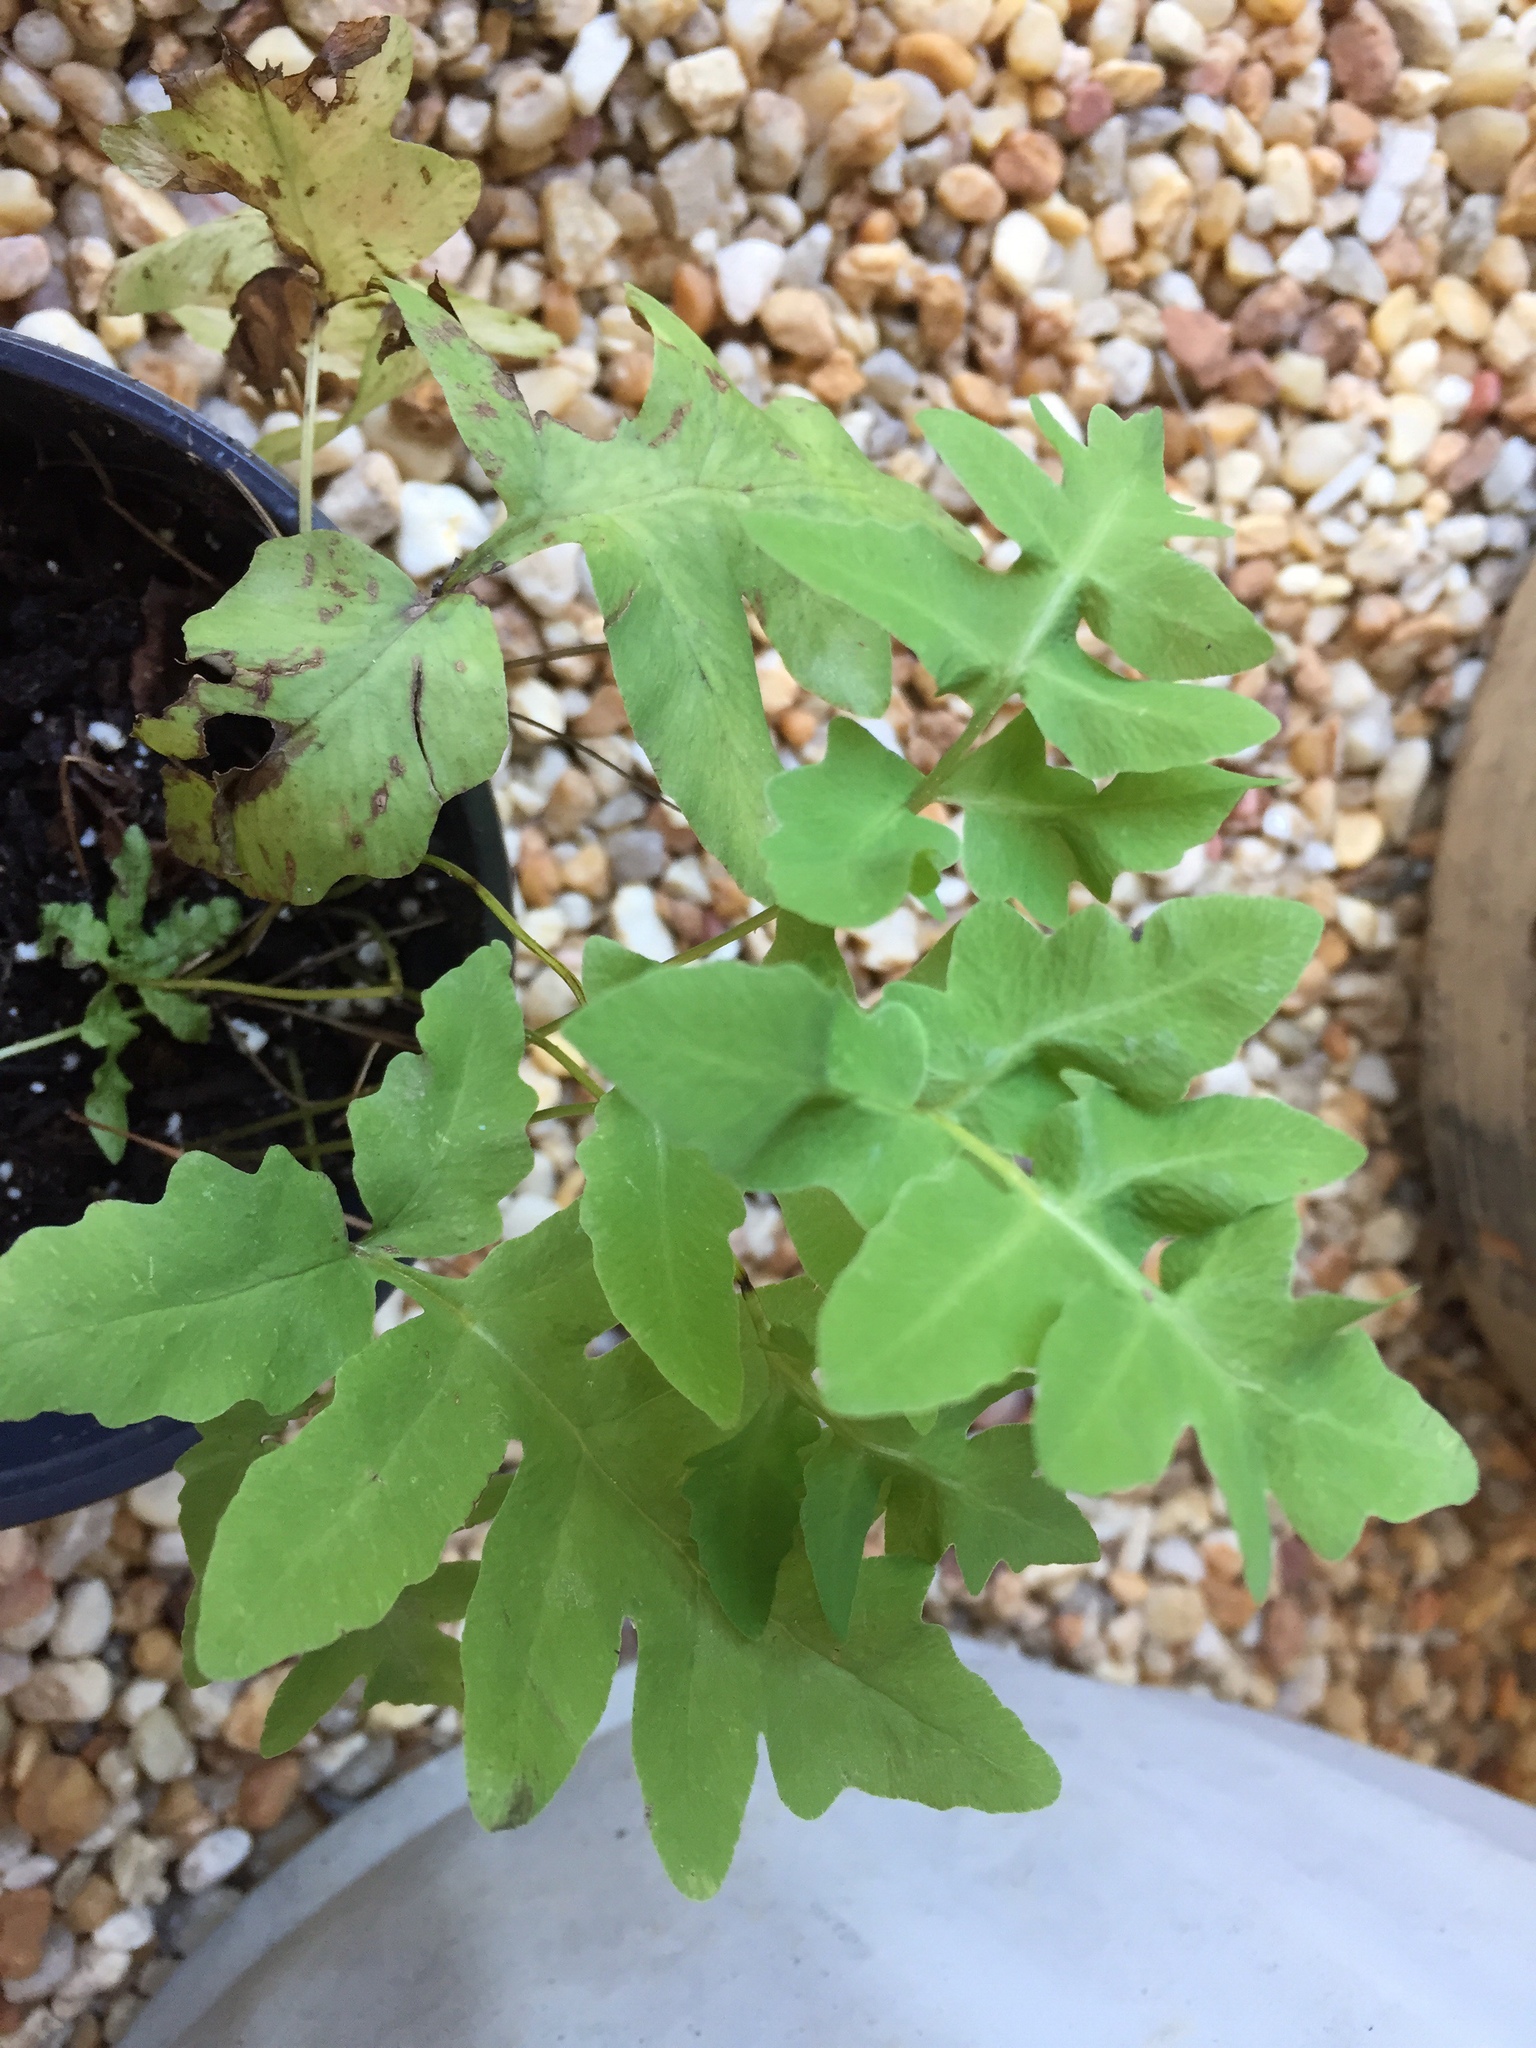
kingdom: Plantae
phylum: Tracheophyta
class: Polypodiopsida
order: Polypodiales
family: Onocleaceae
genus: Onoclea
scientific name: Onoclea sensibilis
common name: Sensitive fern
